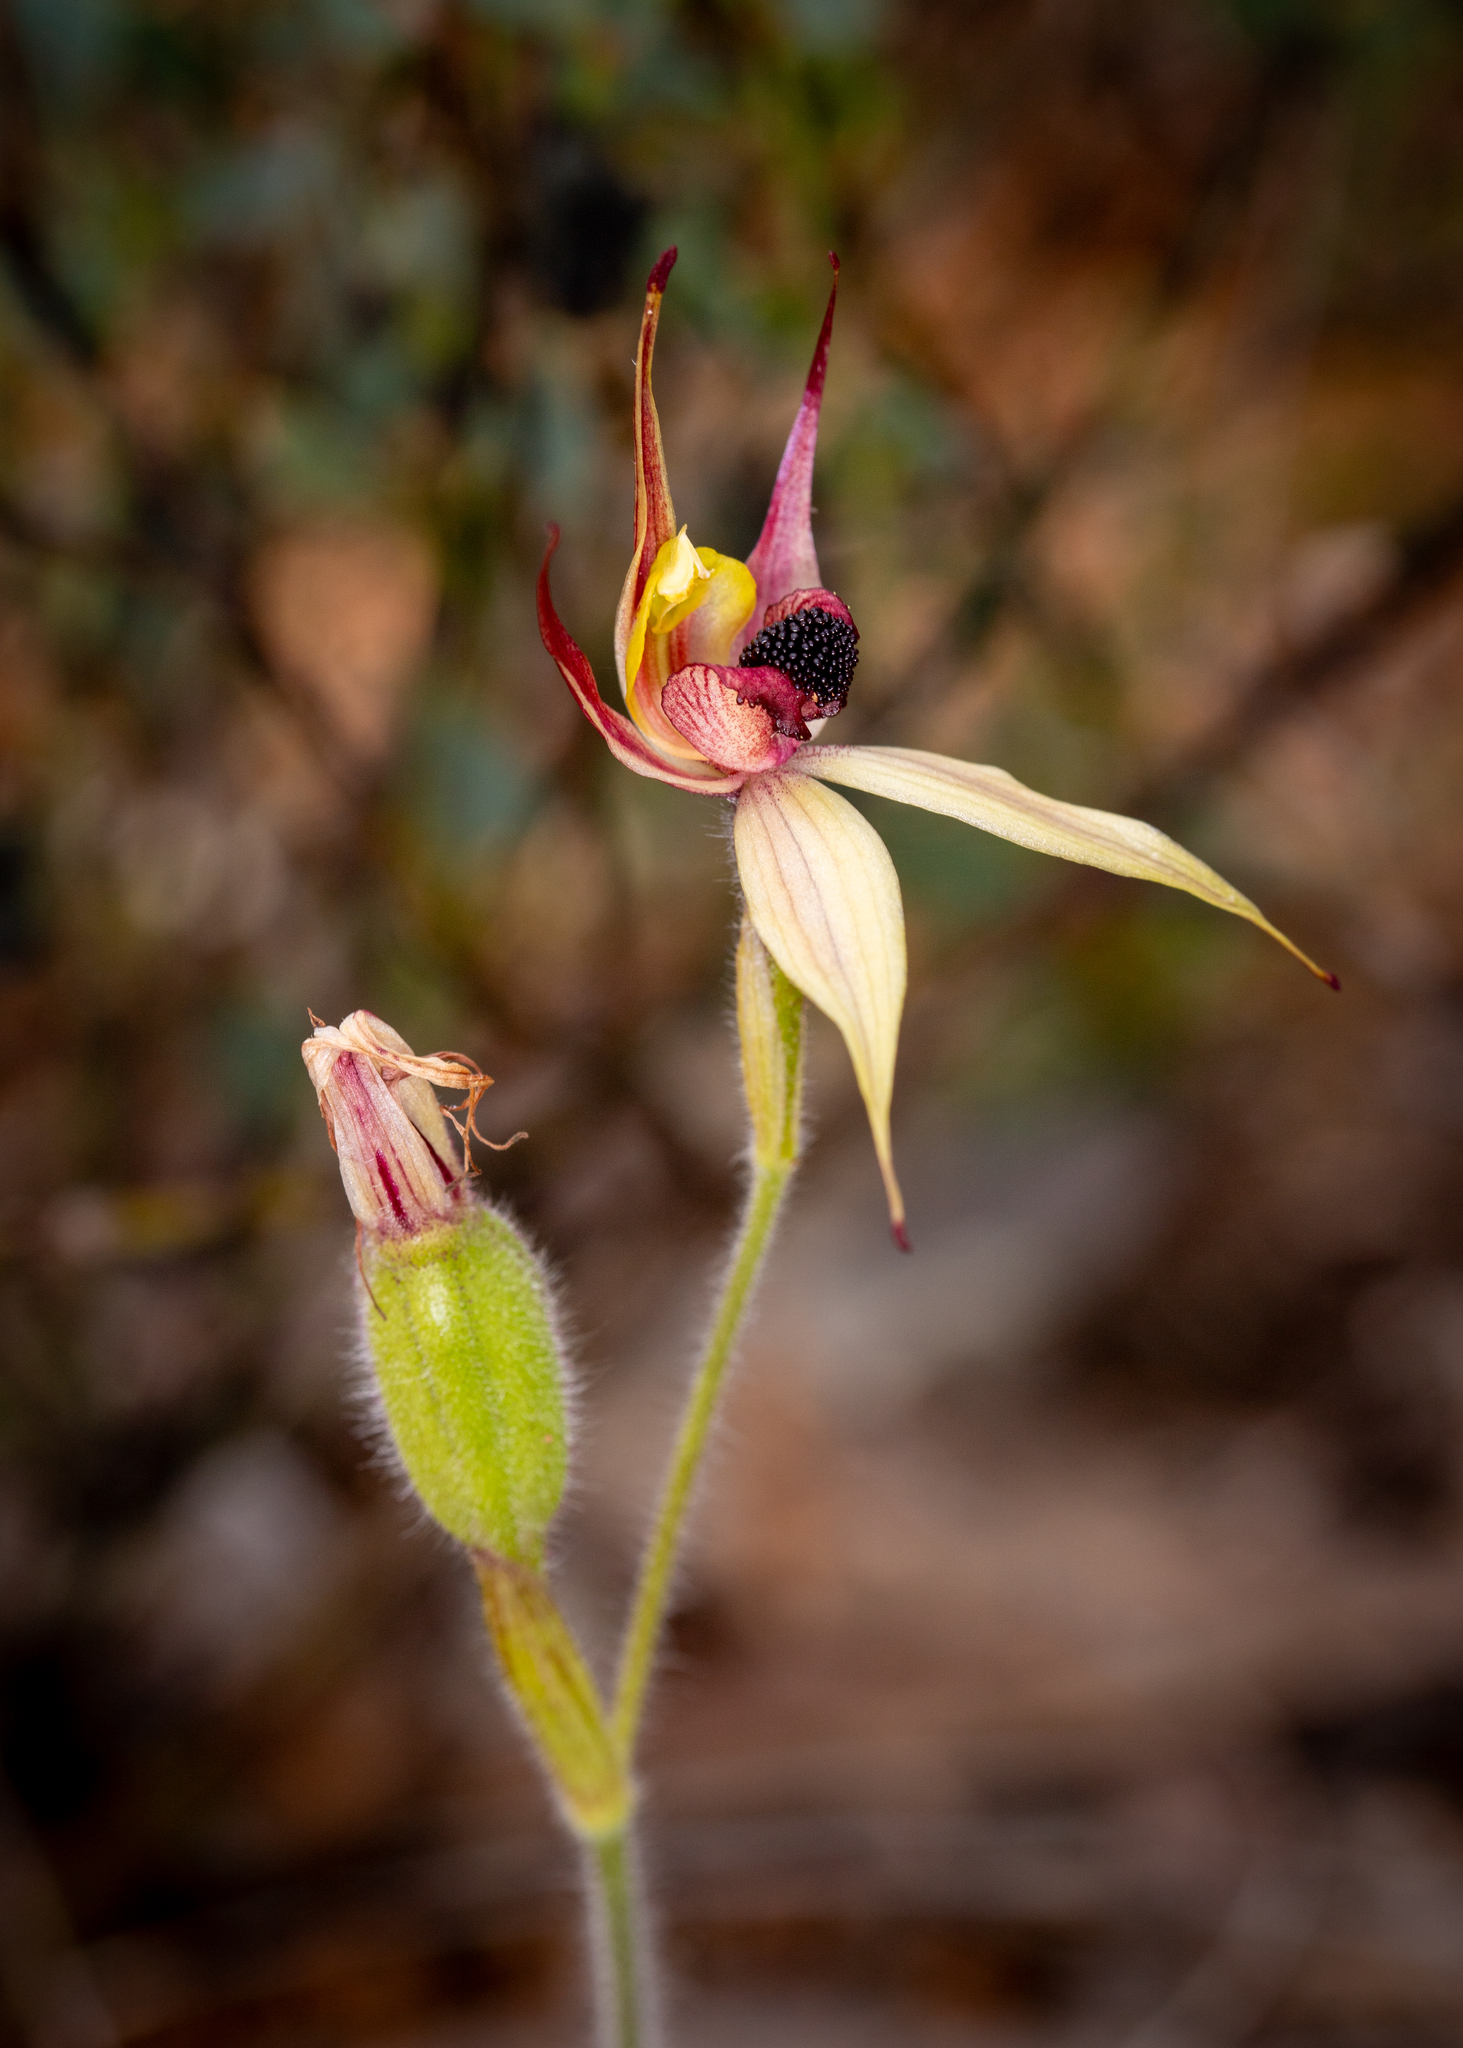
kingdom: Plantae
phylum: Tracheophyta
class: Liliopsida
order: Asparagales
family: Orchidaceae
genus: Caladenia
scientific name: Caladenia macrostylis
